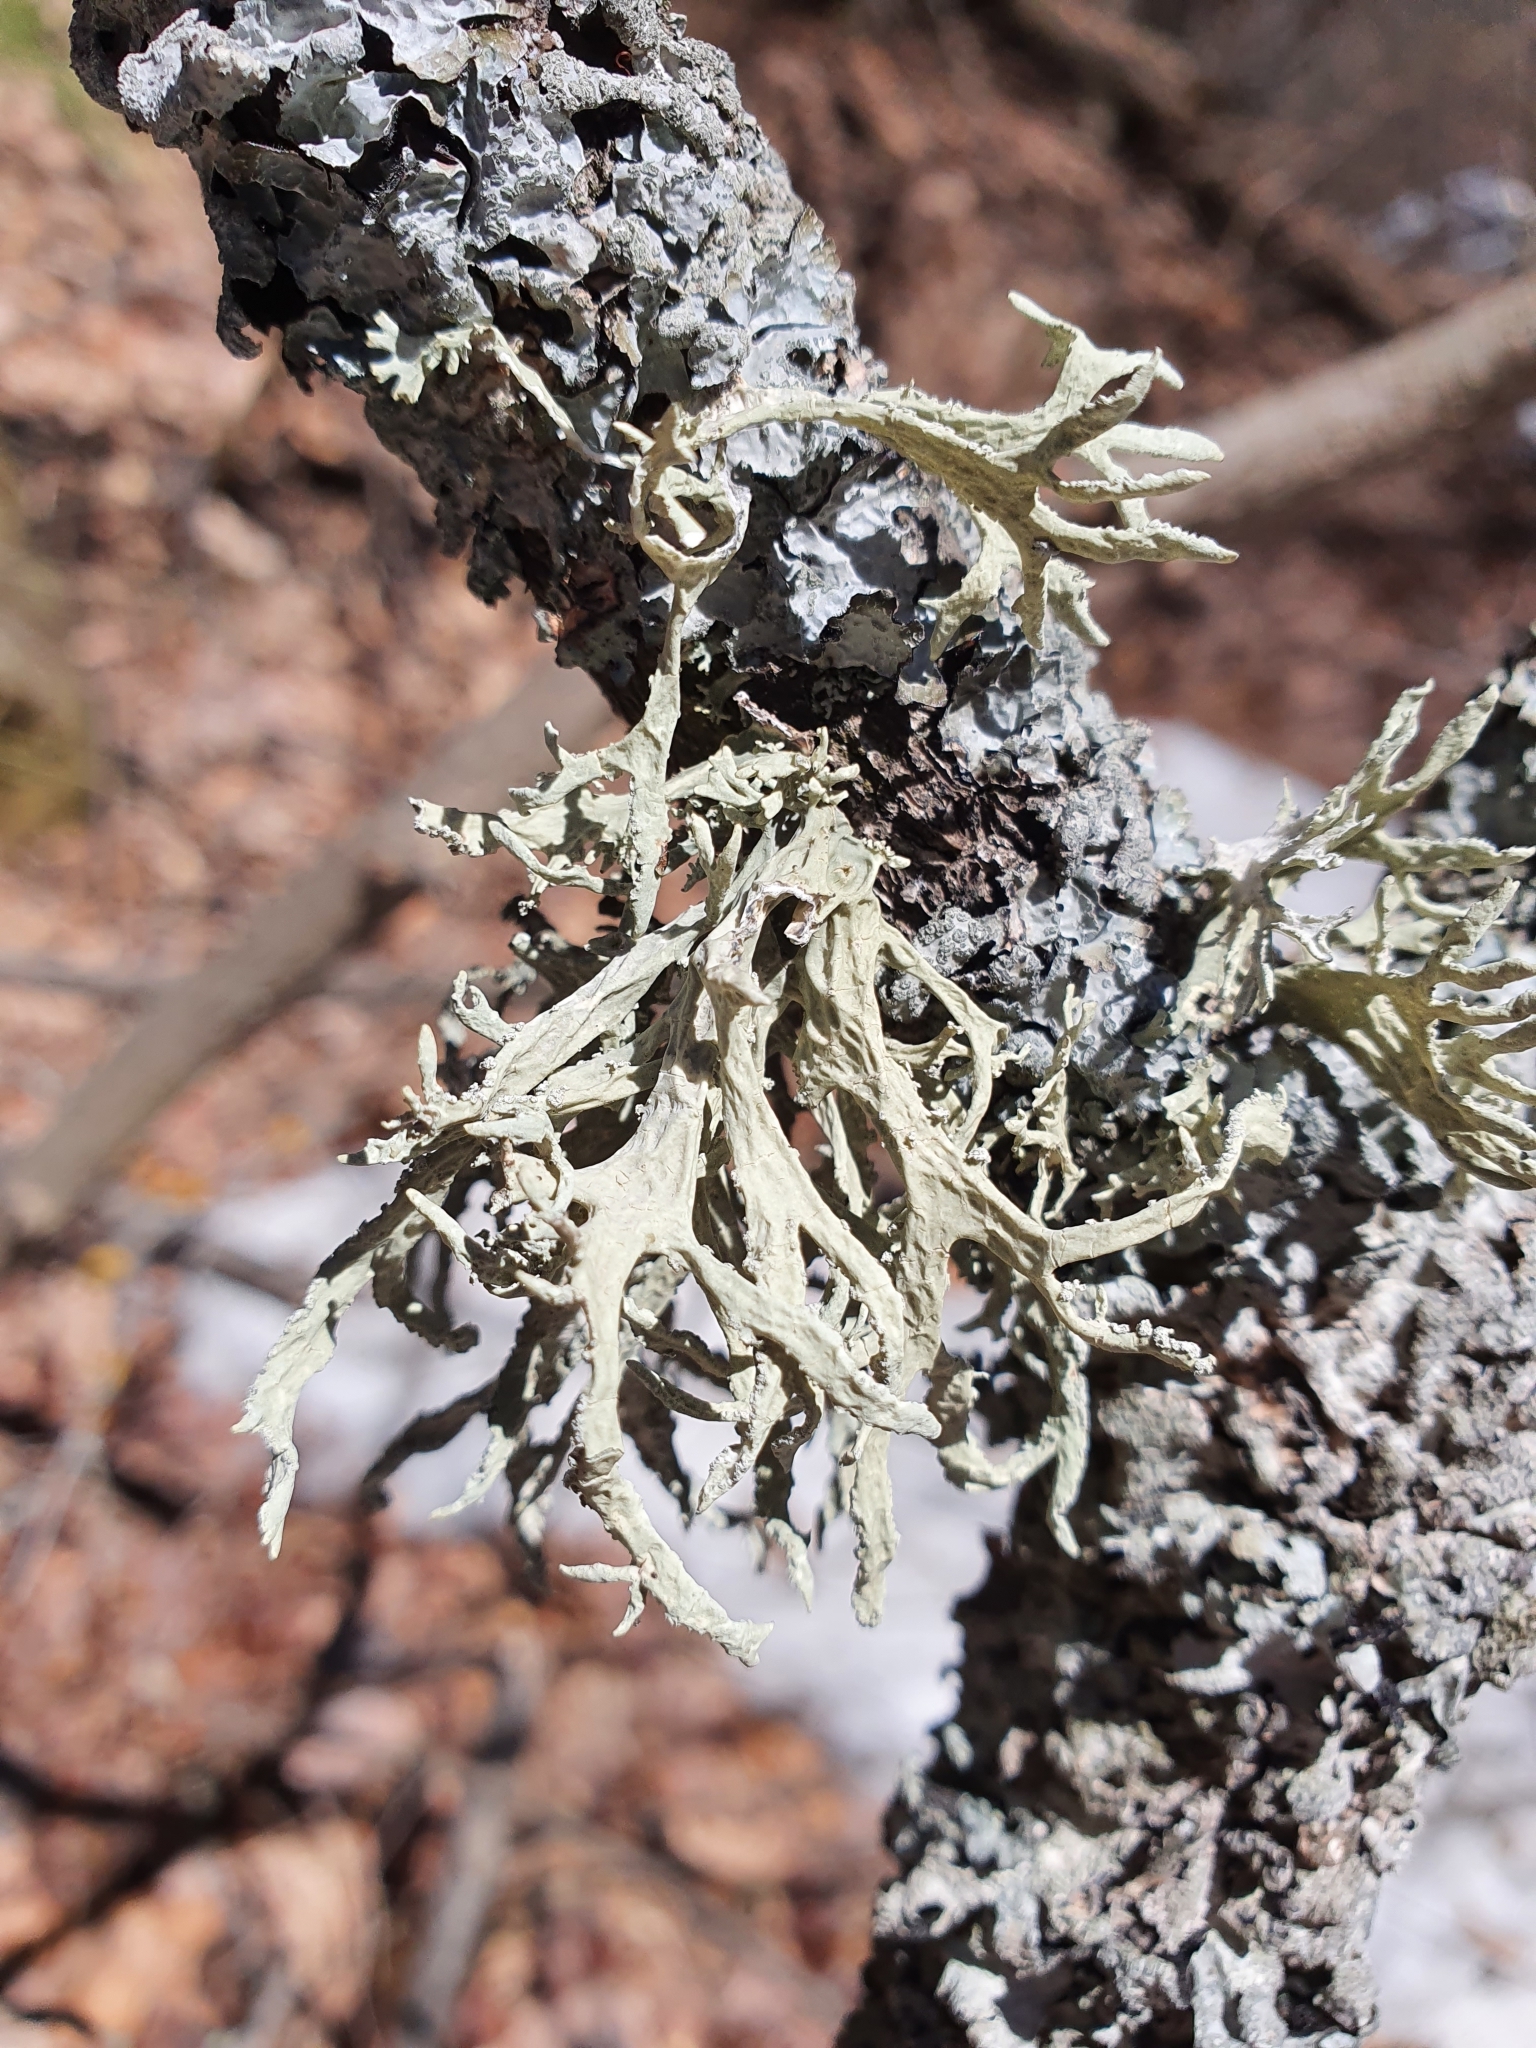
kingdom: Fungi
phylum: Ascomycota
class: Lecanoromycetes
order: Lecanorales
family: Parmeliaceae
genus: Evernia
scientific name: Evernia prunastri
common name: Oak moss
